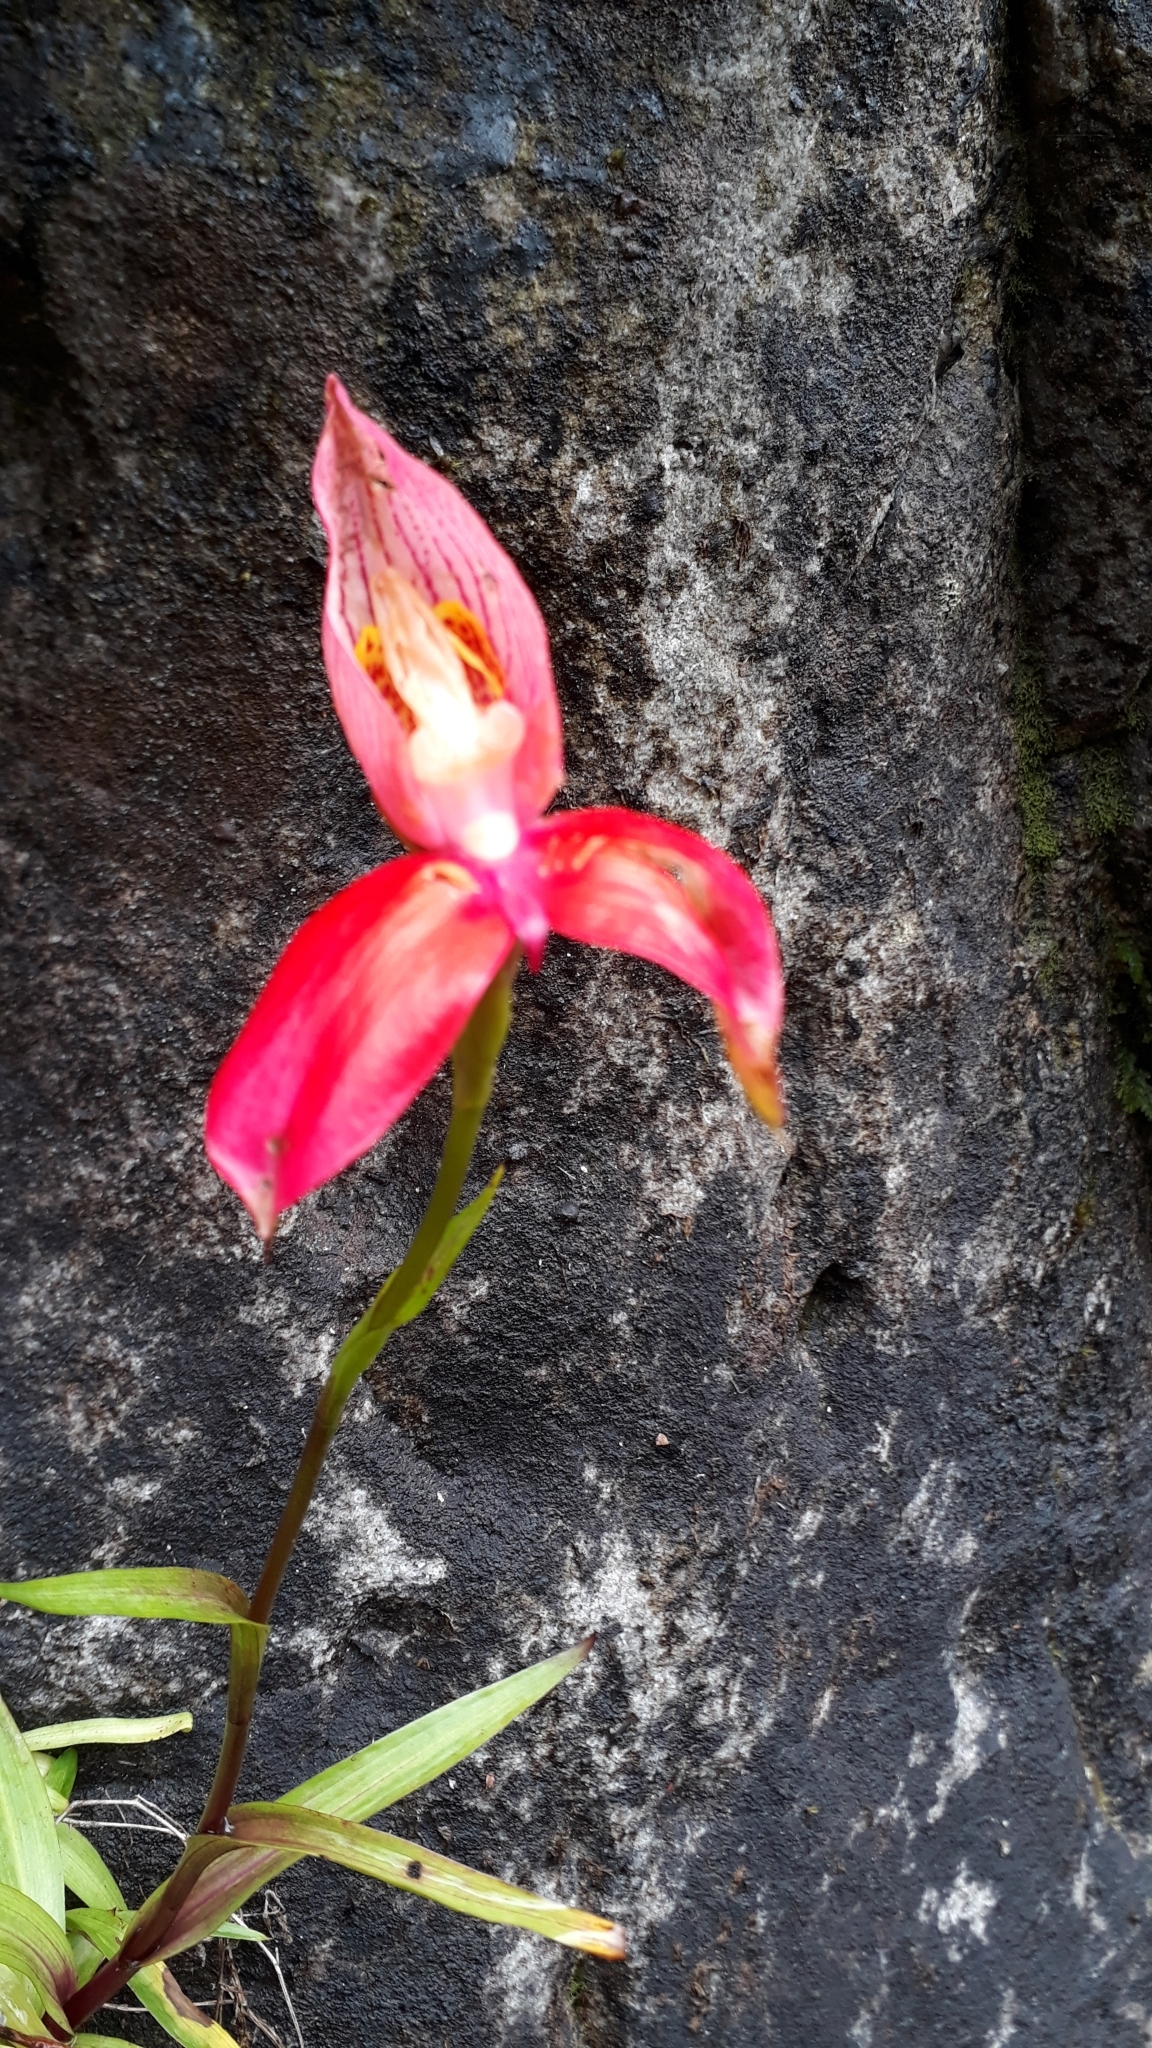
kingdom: Plantae
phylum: Tracheophyta
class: Liliopsida
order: Asparagales
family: Orchidaceae
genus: Disa
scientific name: Disa uniflora
